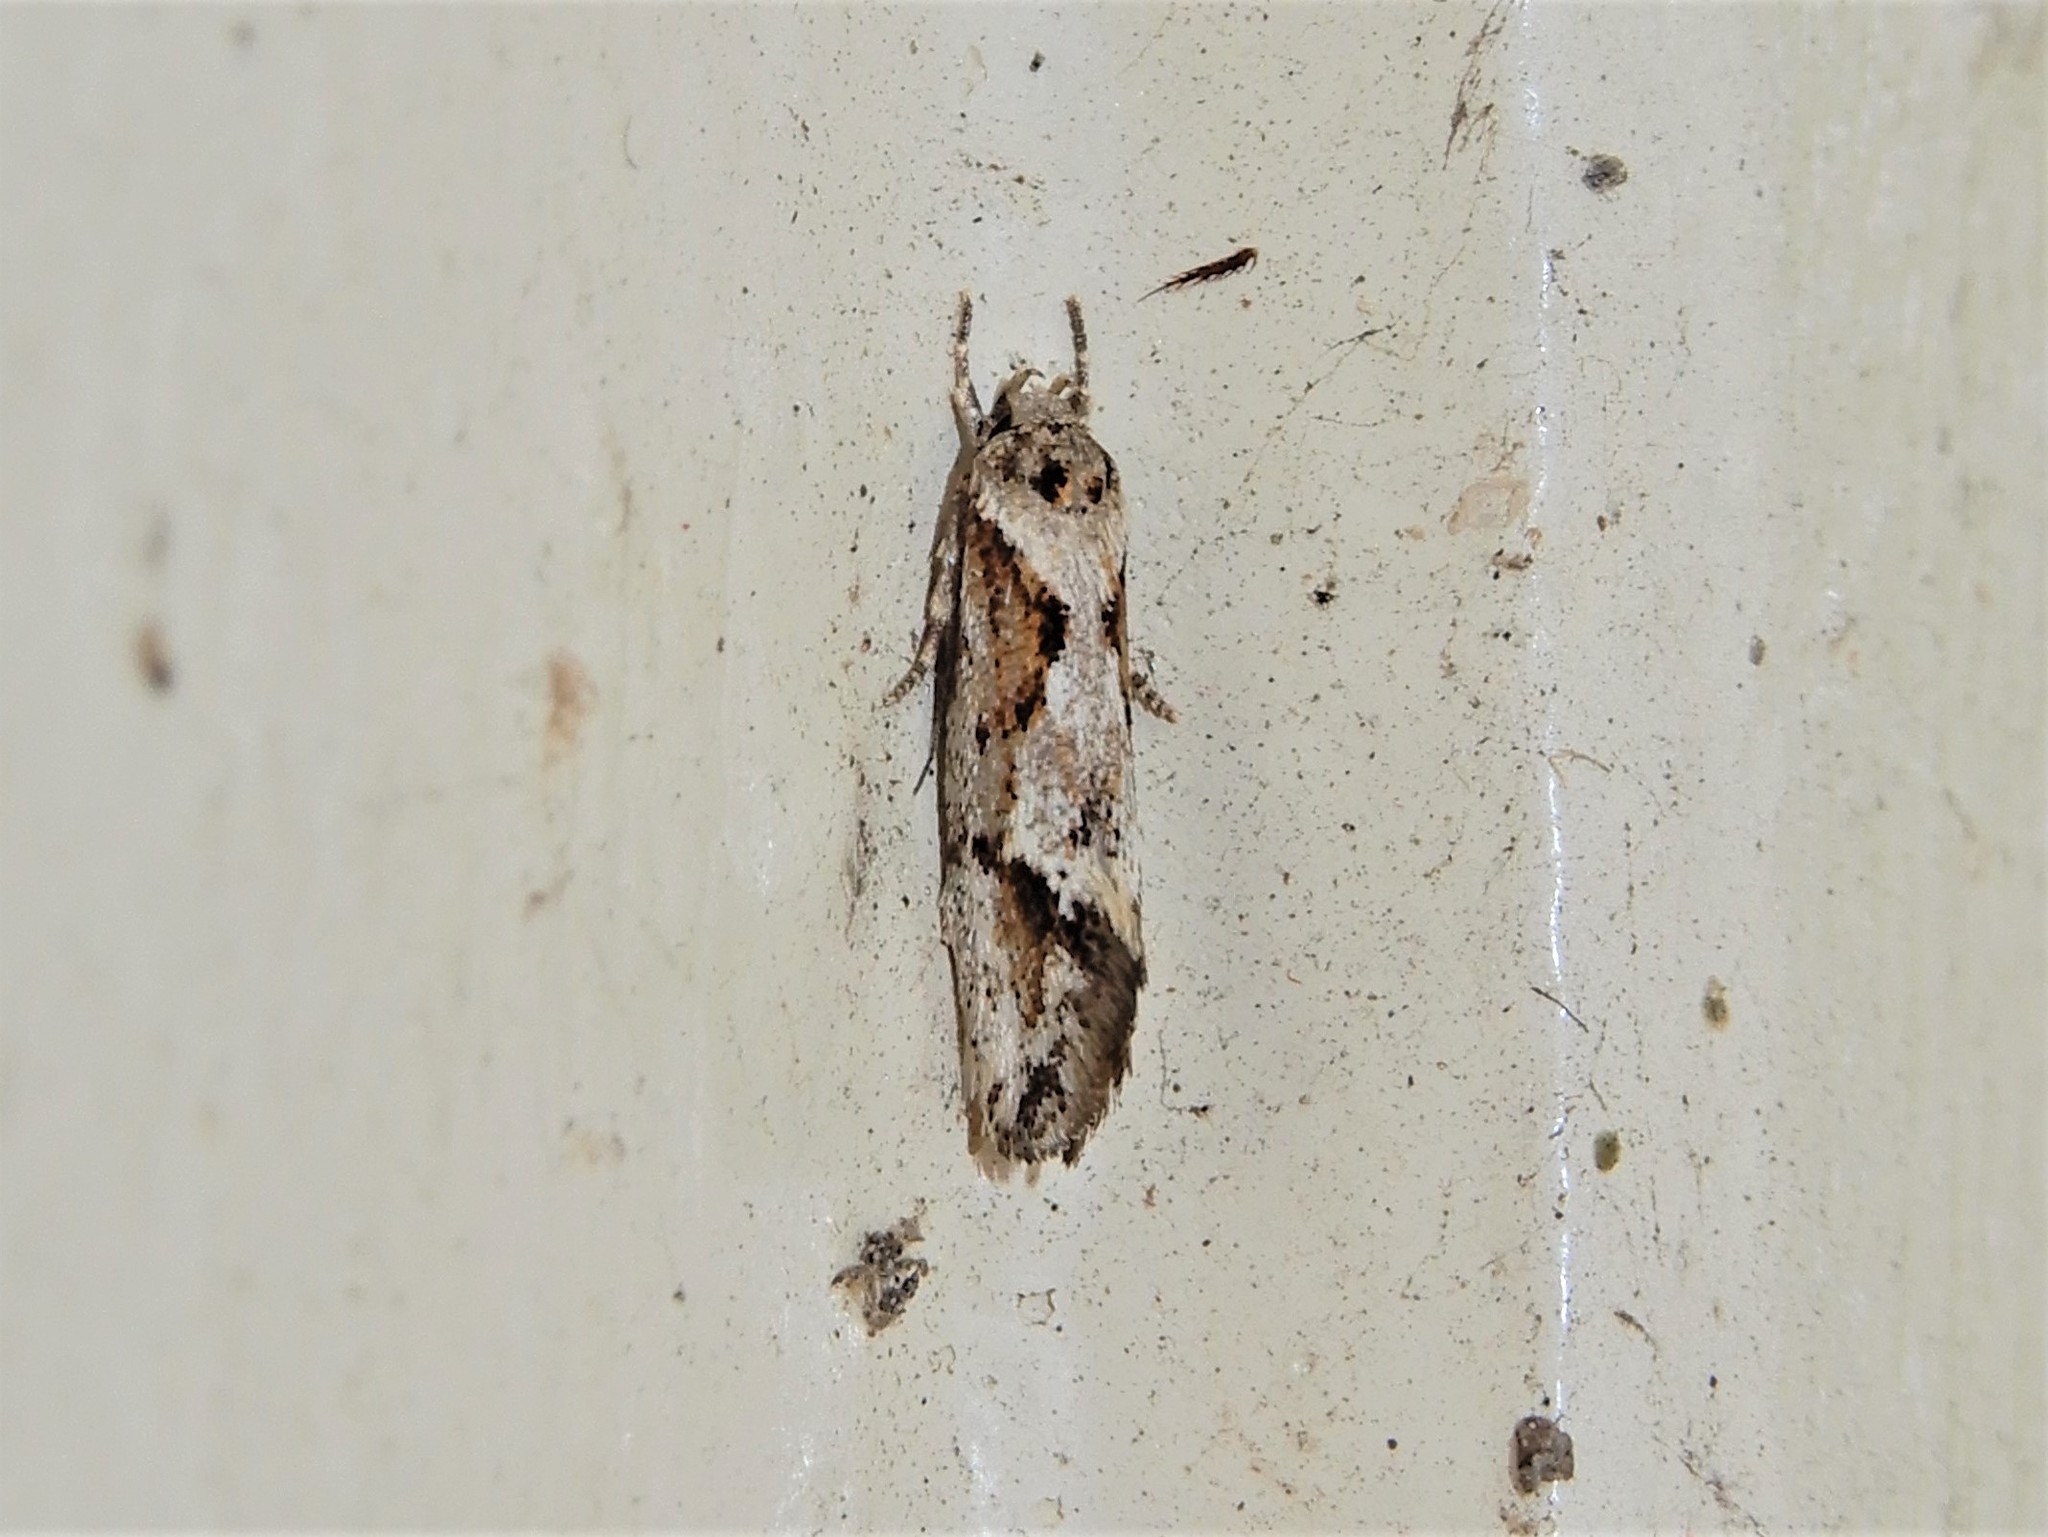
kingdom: Animalia
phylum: Arthropoda
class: Insecta
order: Lepidoptera
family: Oecophoridae
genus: Tingena
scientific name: Tingena hemimochla
